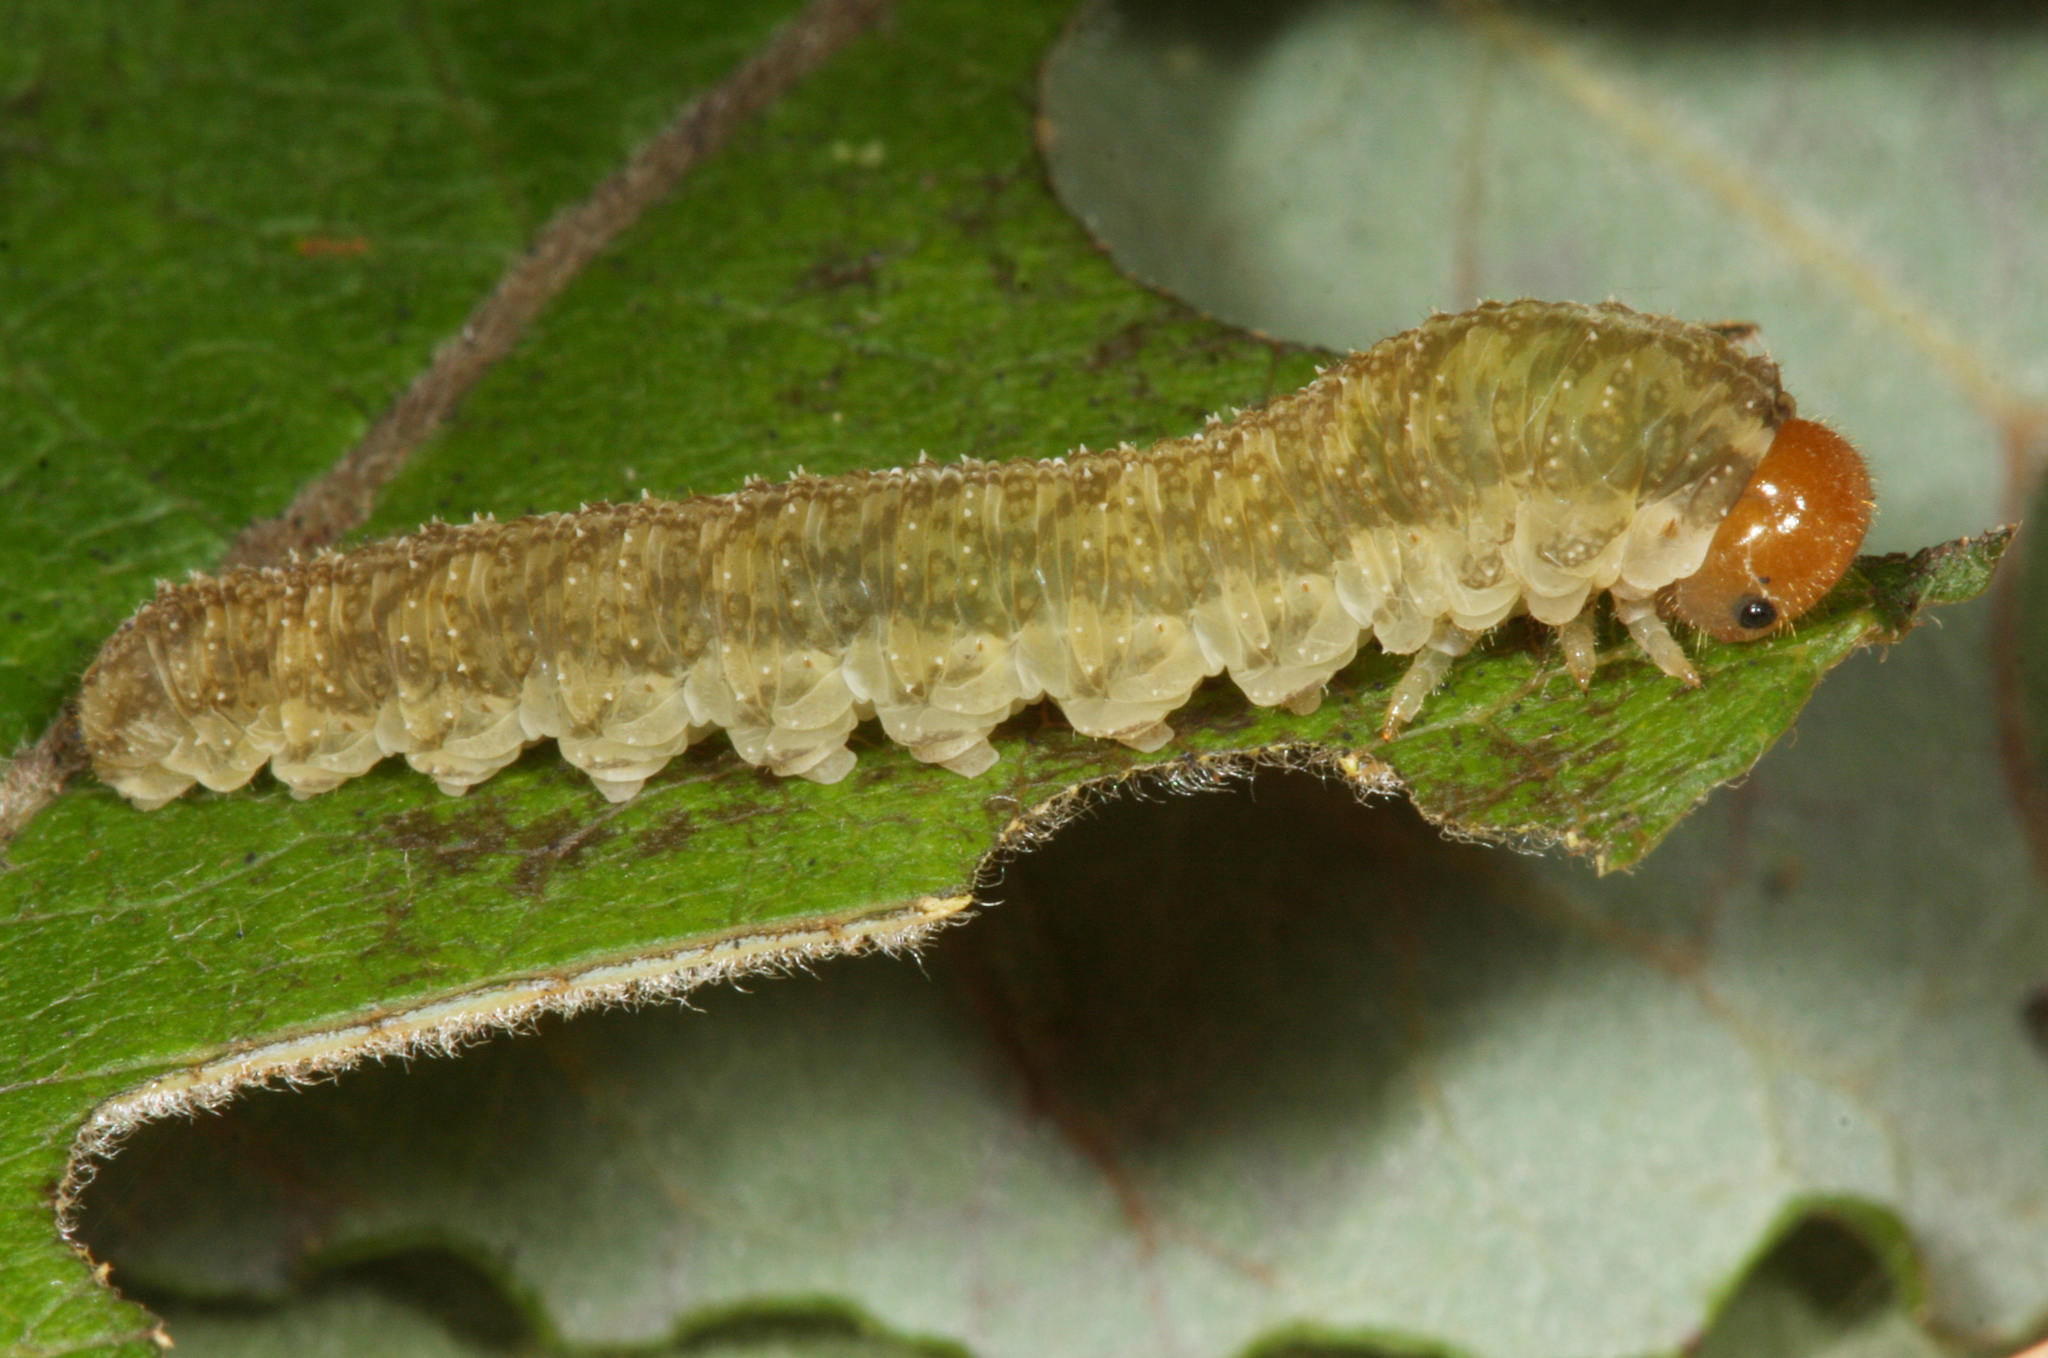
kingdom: Animalia
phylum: Arthropoda
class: Insecta
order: Hymenoptera
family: Tenthredinidae
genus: Tenthredo
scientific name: Tenthredo livida
